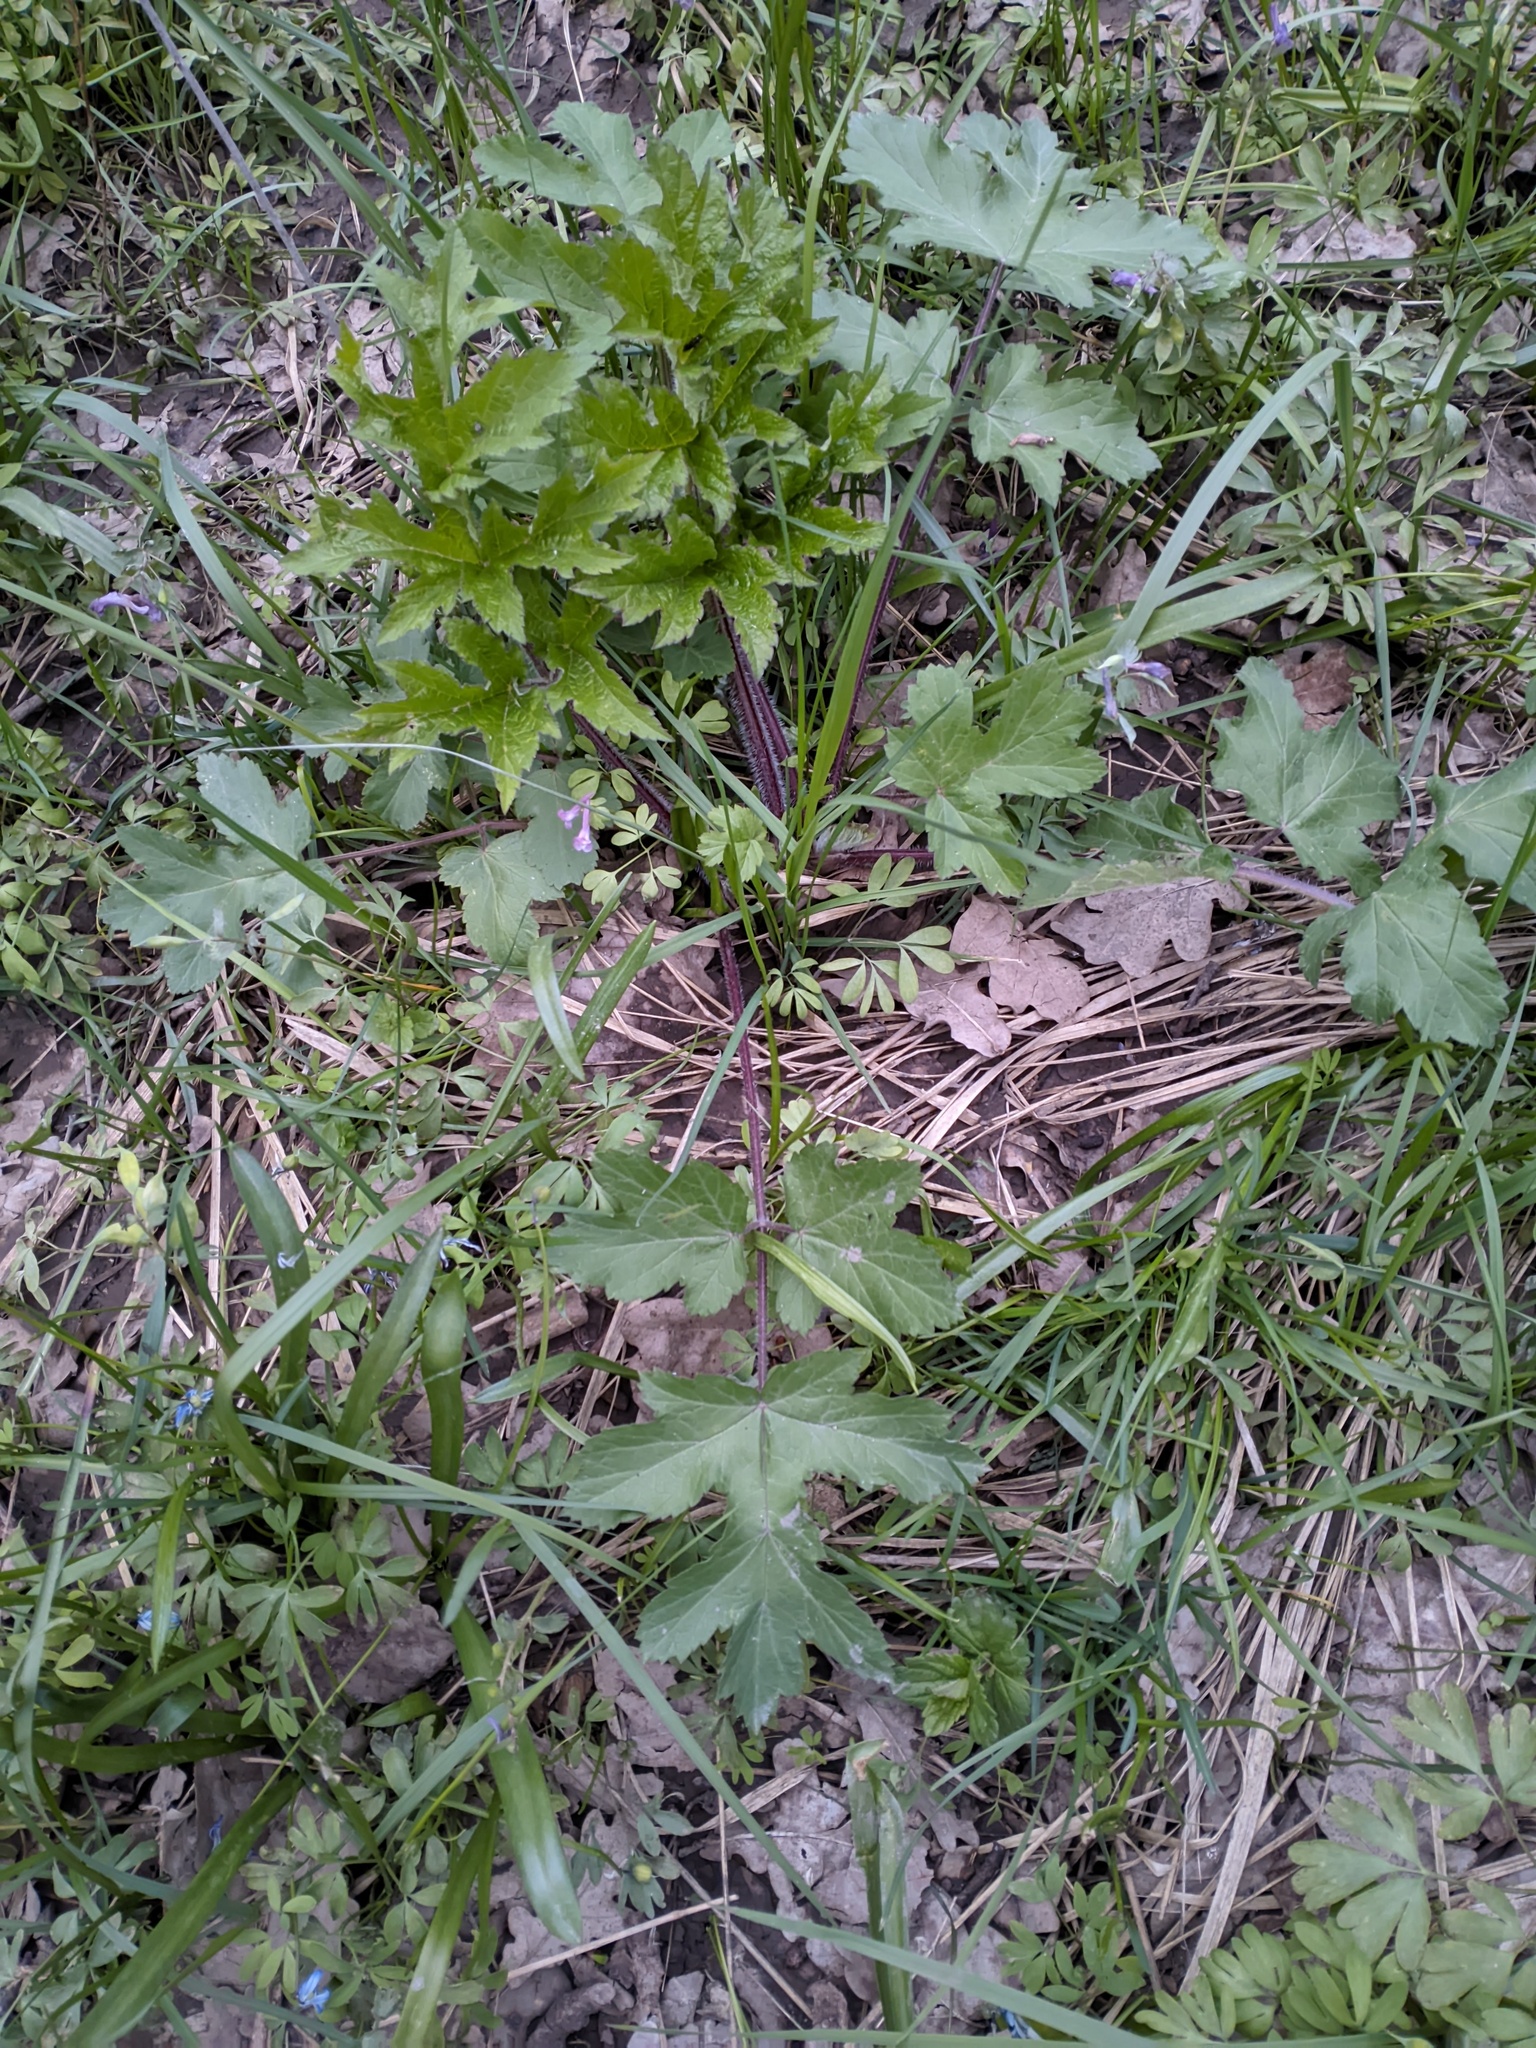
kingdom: Plantae
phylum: Tracheophyta
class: Magnoliopsida
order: Apiales
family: Apiaceae
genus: Heracleum
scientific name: Heracleum sphondylium
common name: Hogweed
